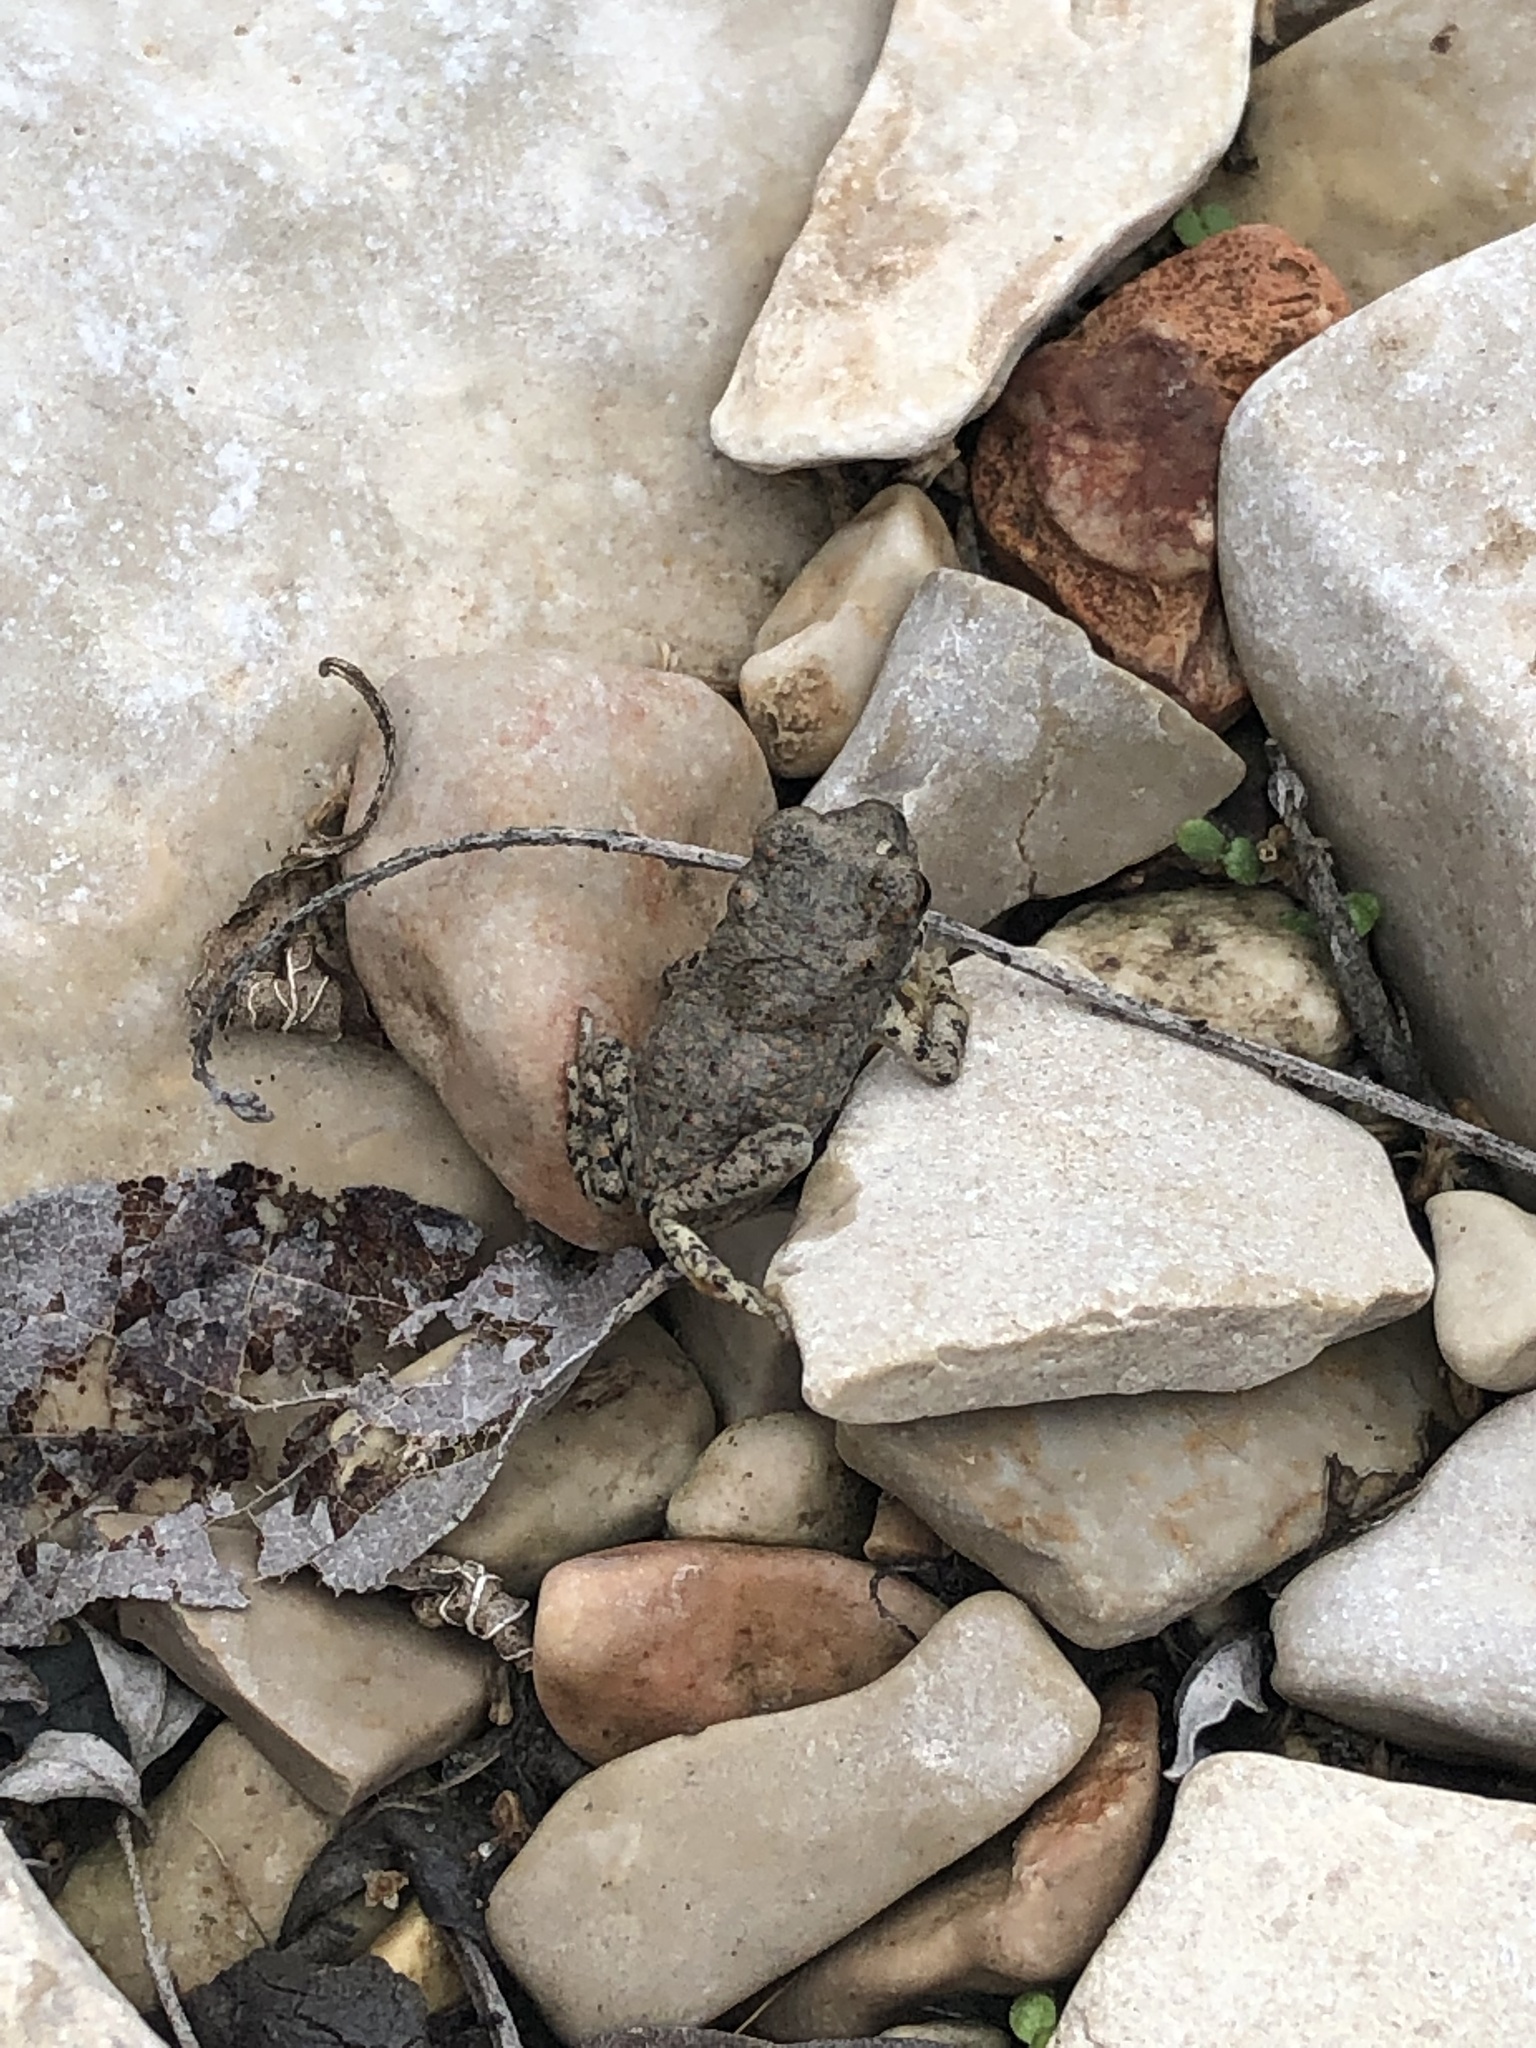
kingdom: Animalia
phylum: Chordata
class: Amphibia
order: Anura
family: Bufonidae
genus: Anaxyrus
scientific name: Anaxyrus punctatus
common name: Red-spotted toad
